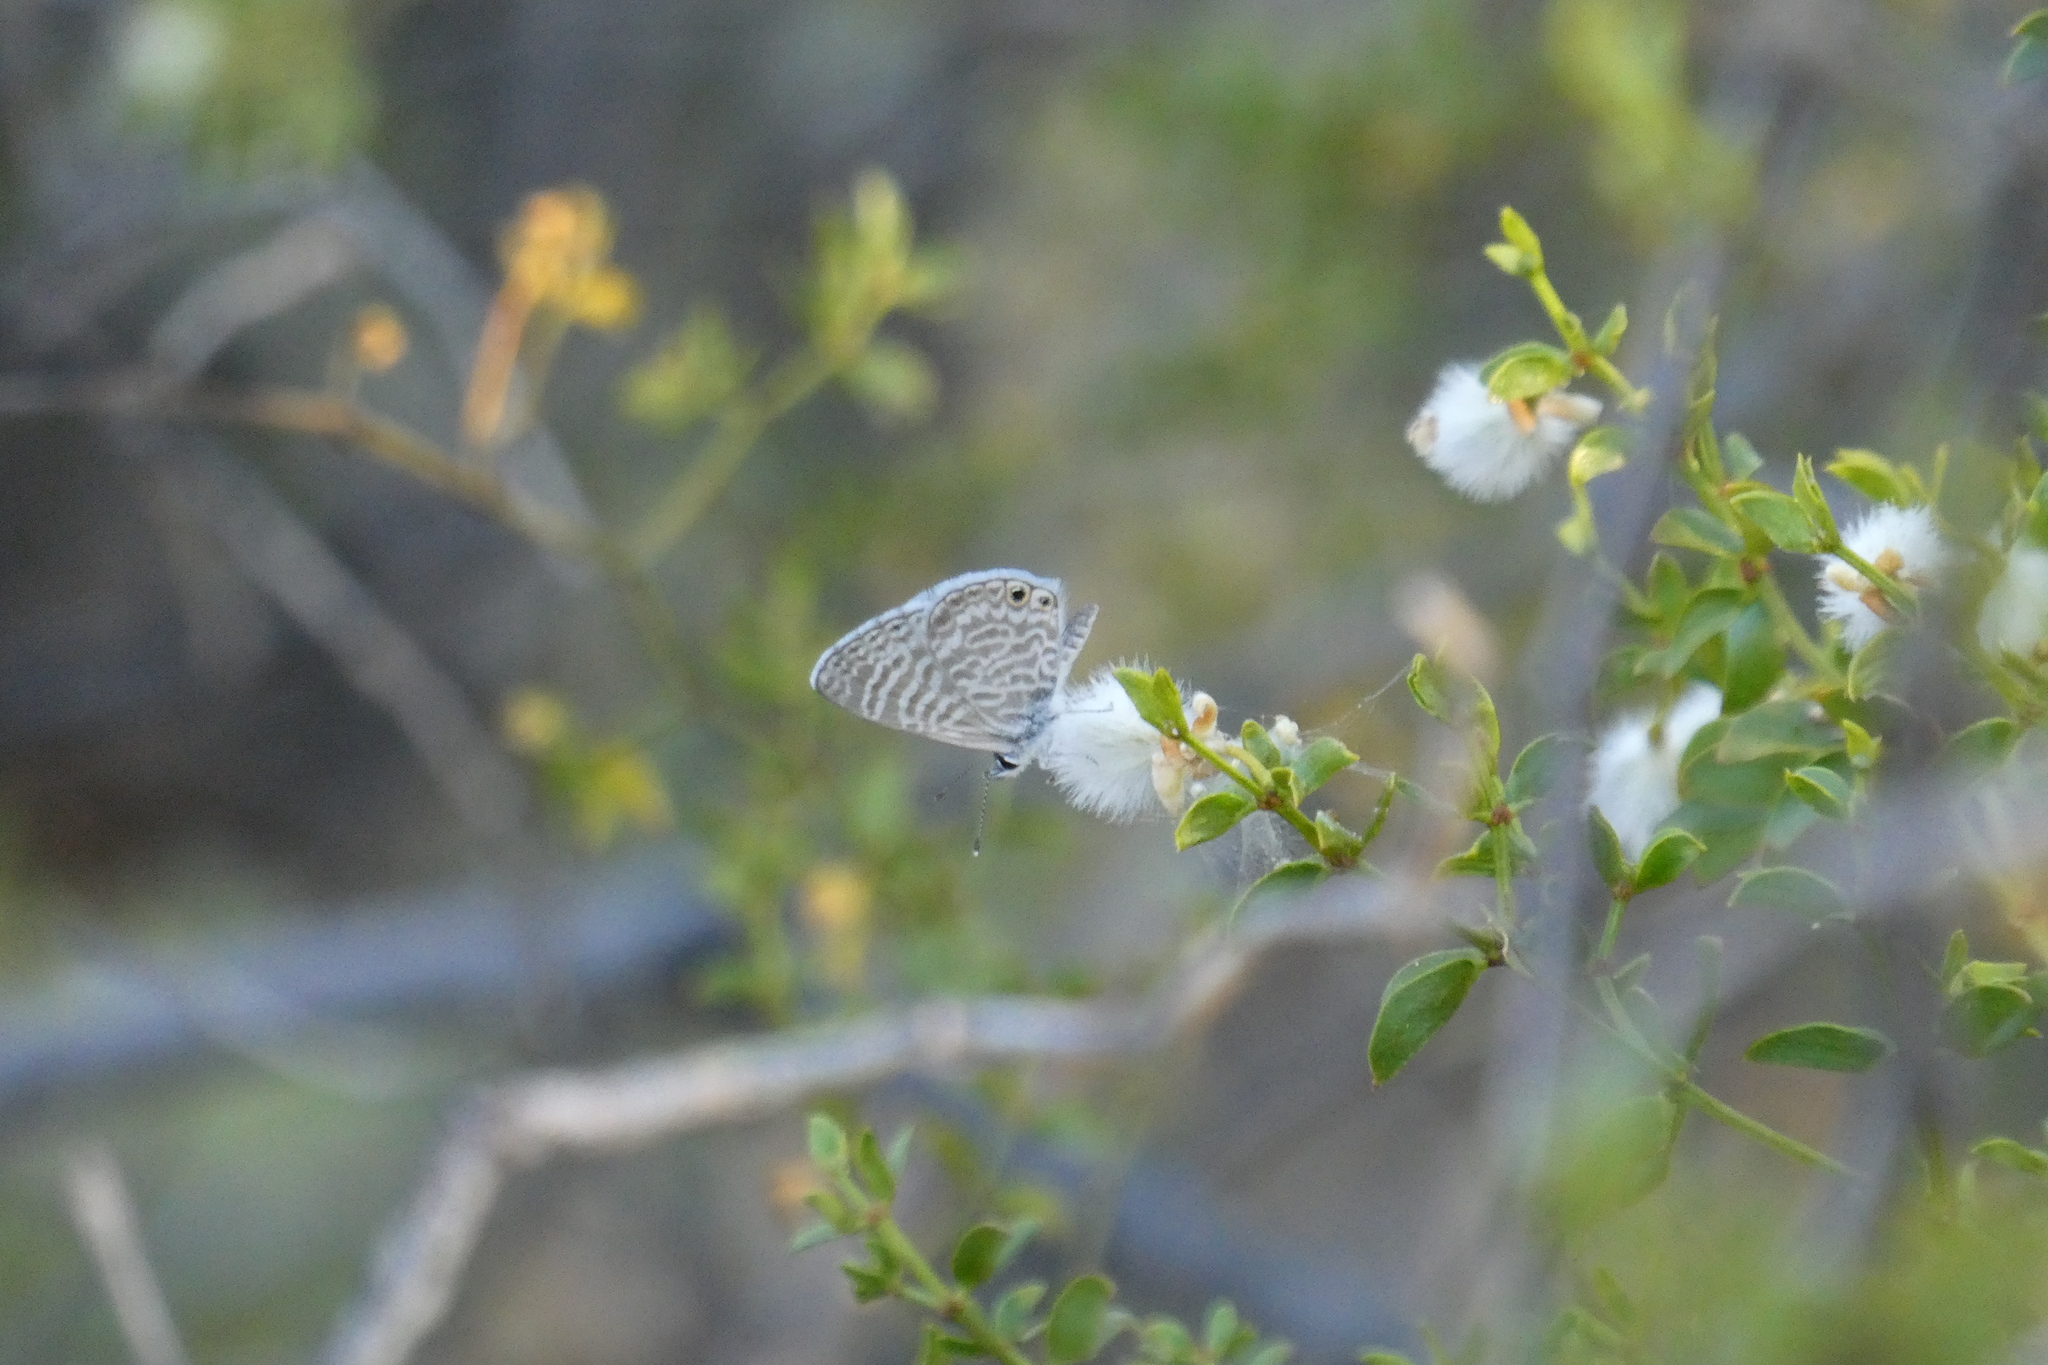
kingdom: Animalia
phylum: Arthropoda
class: Insecta
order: Lepidoptera
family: Lycaenidae
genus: Leptotes
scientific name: Leptotes marina
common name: Marine blue
